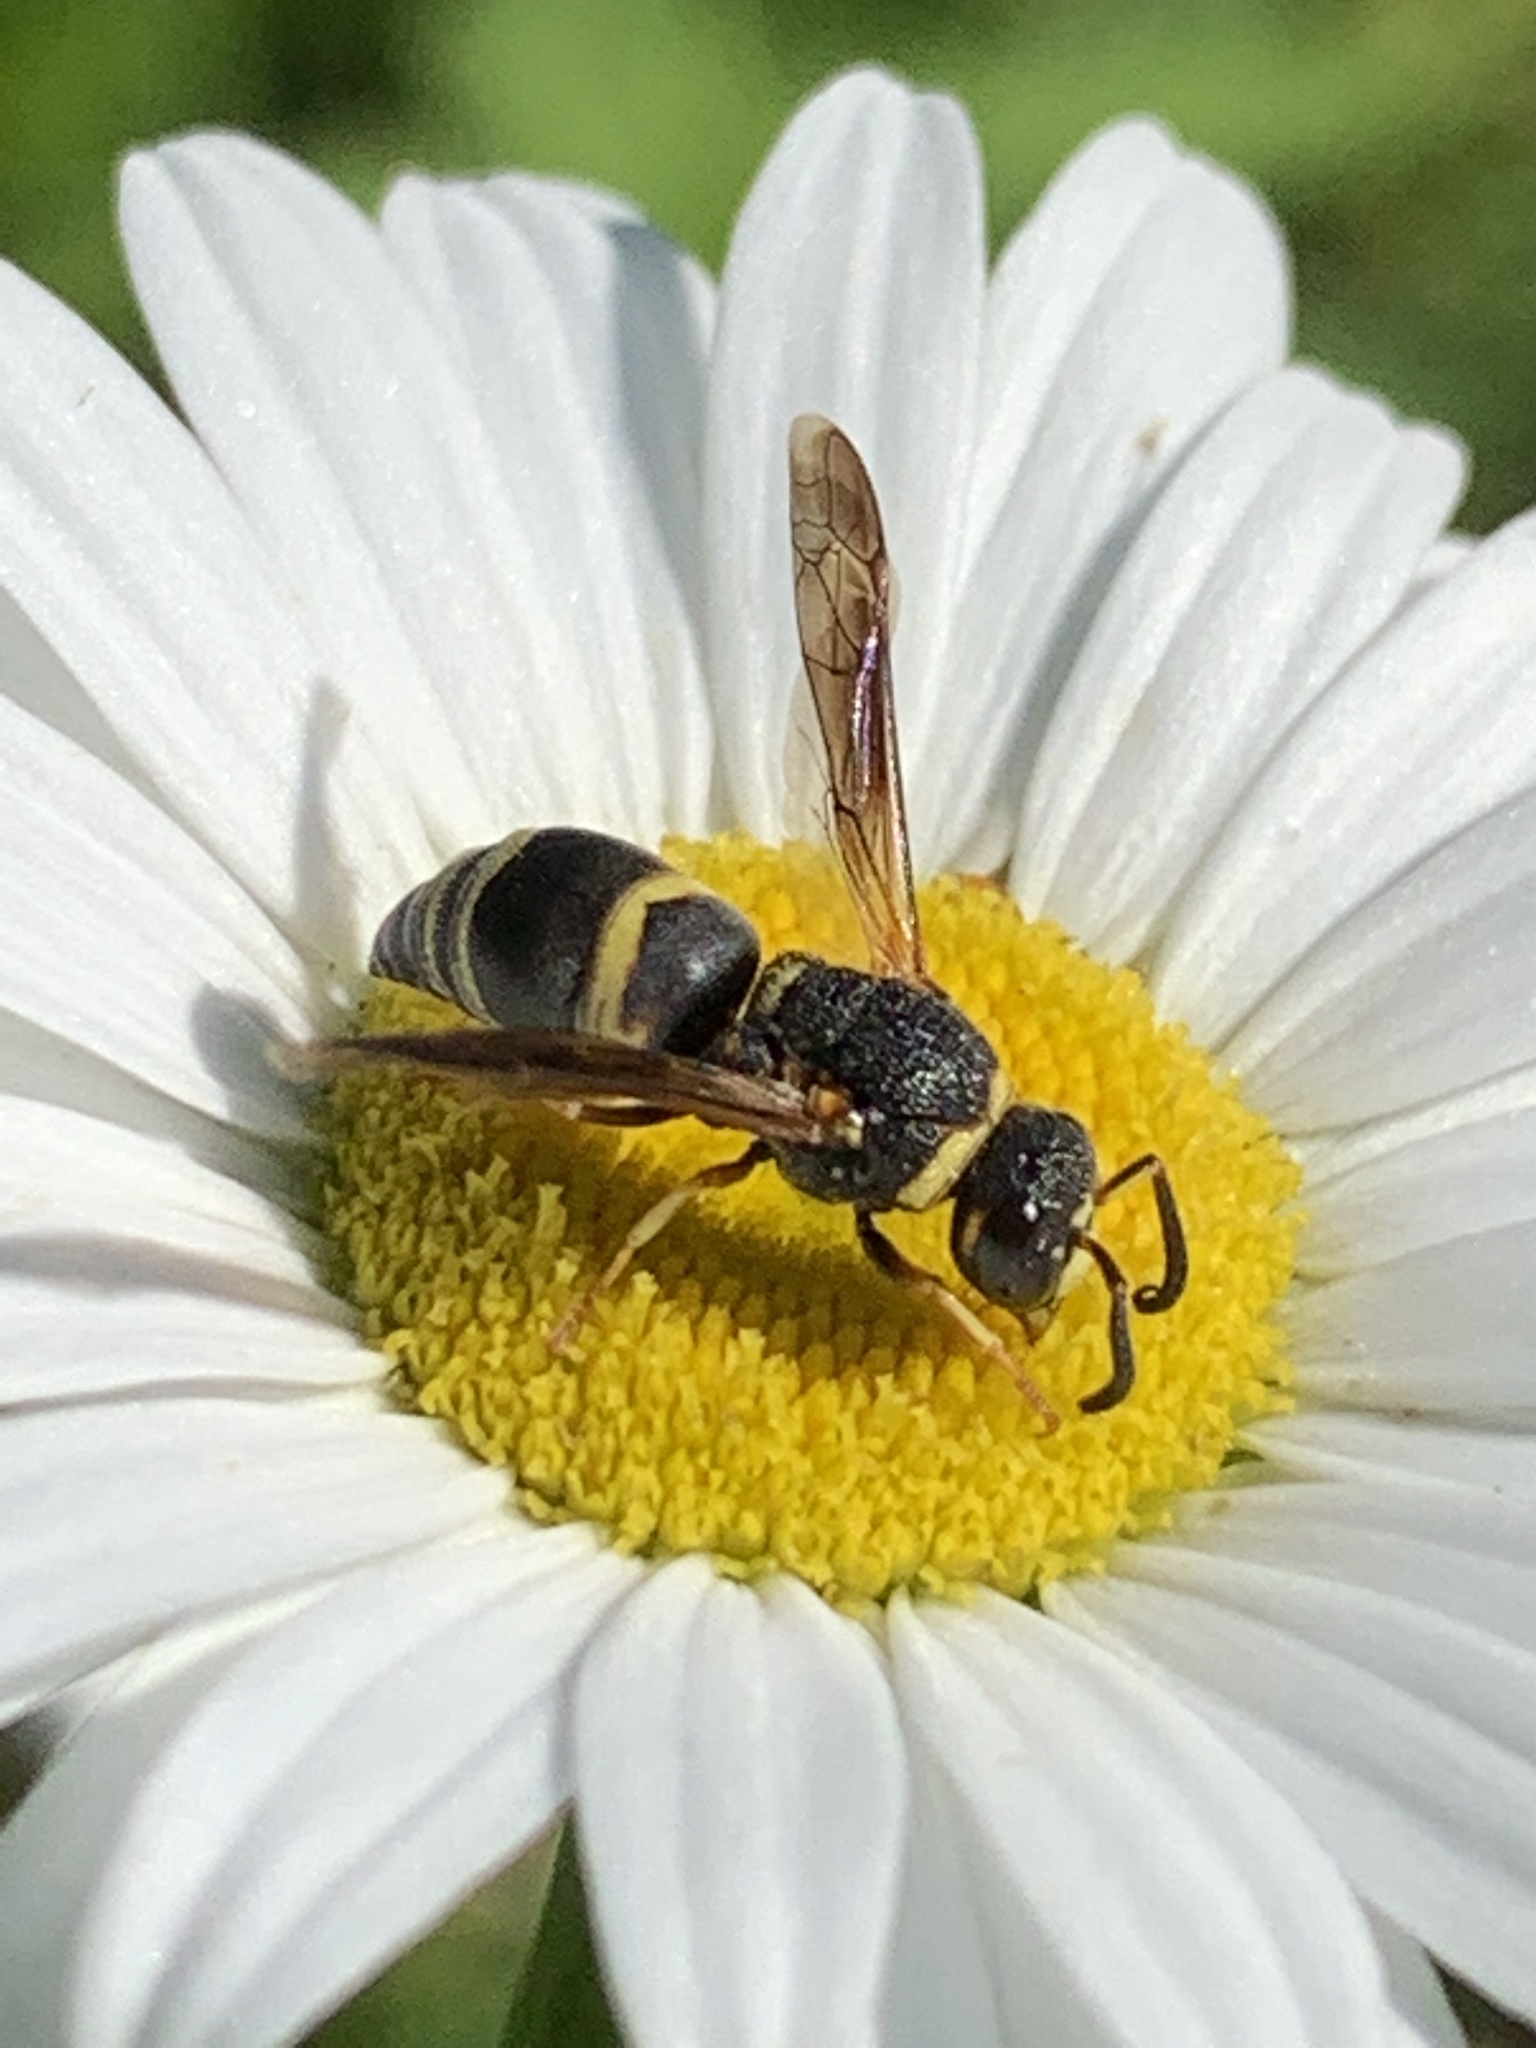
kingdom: Animalia
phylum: Arthropoda
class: Insecta
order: Hymenoptera
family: Eumenidae
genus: Euodynerus
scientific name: Euodynerus hidalgo
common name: Wasp
